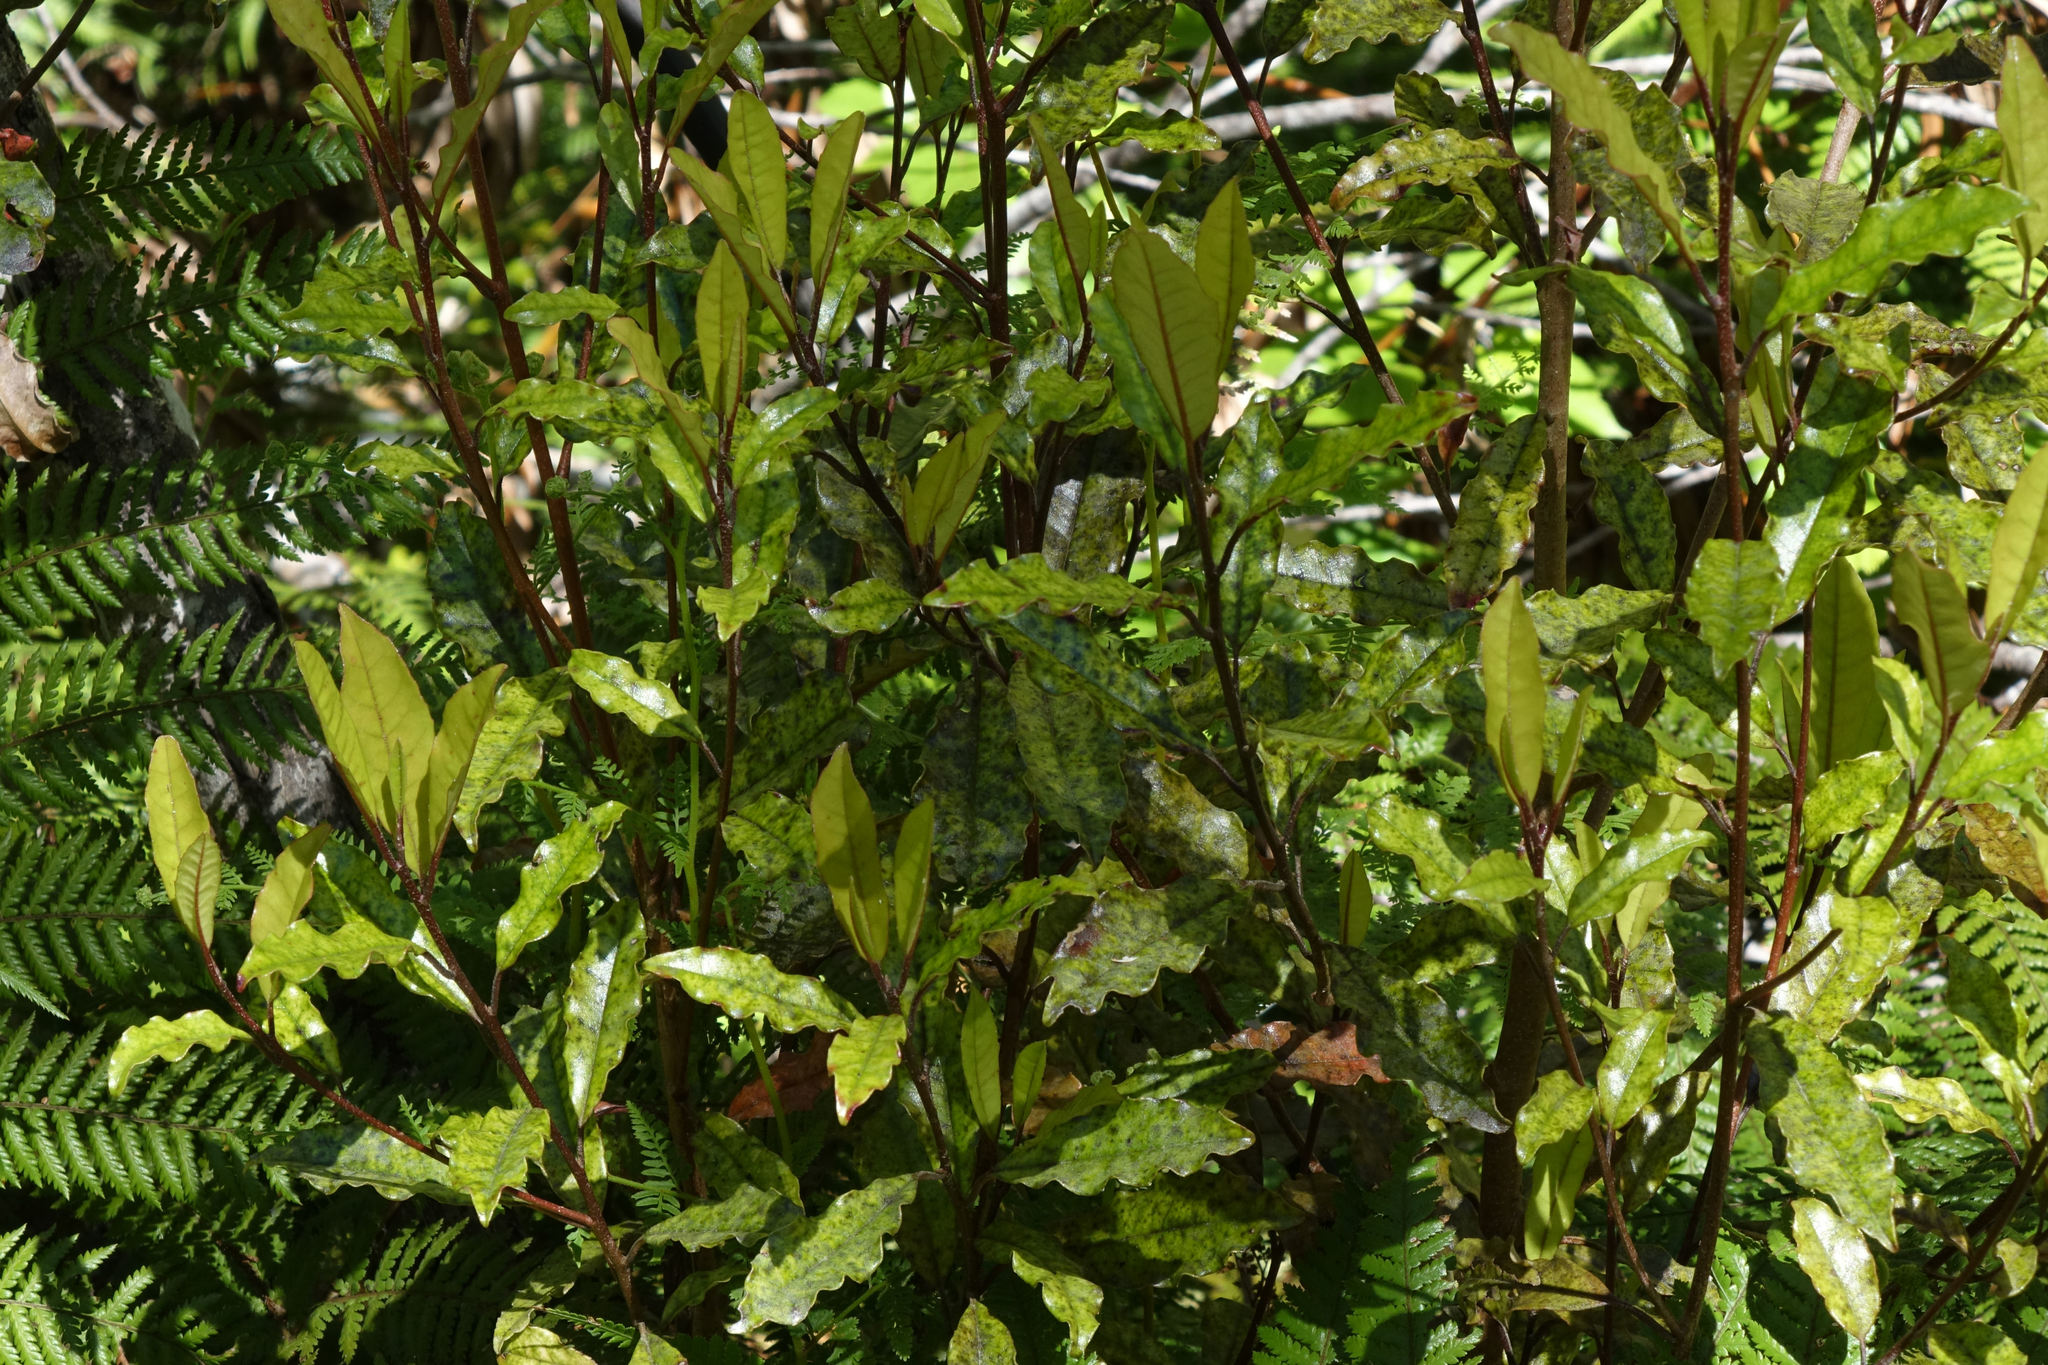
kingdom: Plantae
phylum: Tracheophyta
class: Magnoliopsida
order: Paracryphiales
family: Paracryphiaceae
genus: Quintinia
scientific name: Quintinia serrata
